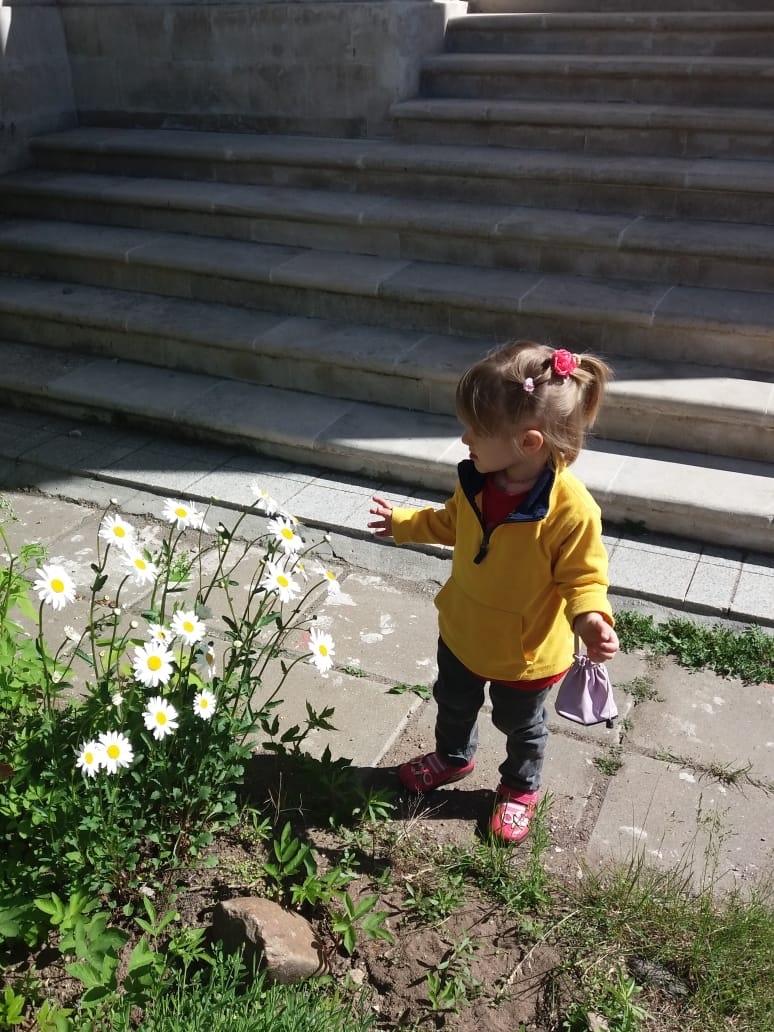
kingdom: Plantae
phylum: Tracheophyta
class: Magnoliopsida
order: Asterales
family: Asteraceae
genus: Leucanthemum
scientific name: Leucanthemum vulgare
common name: Oxeye daisy
